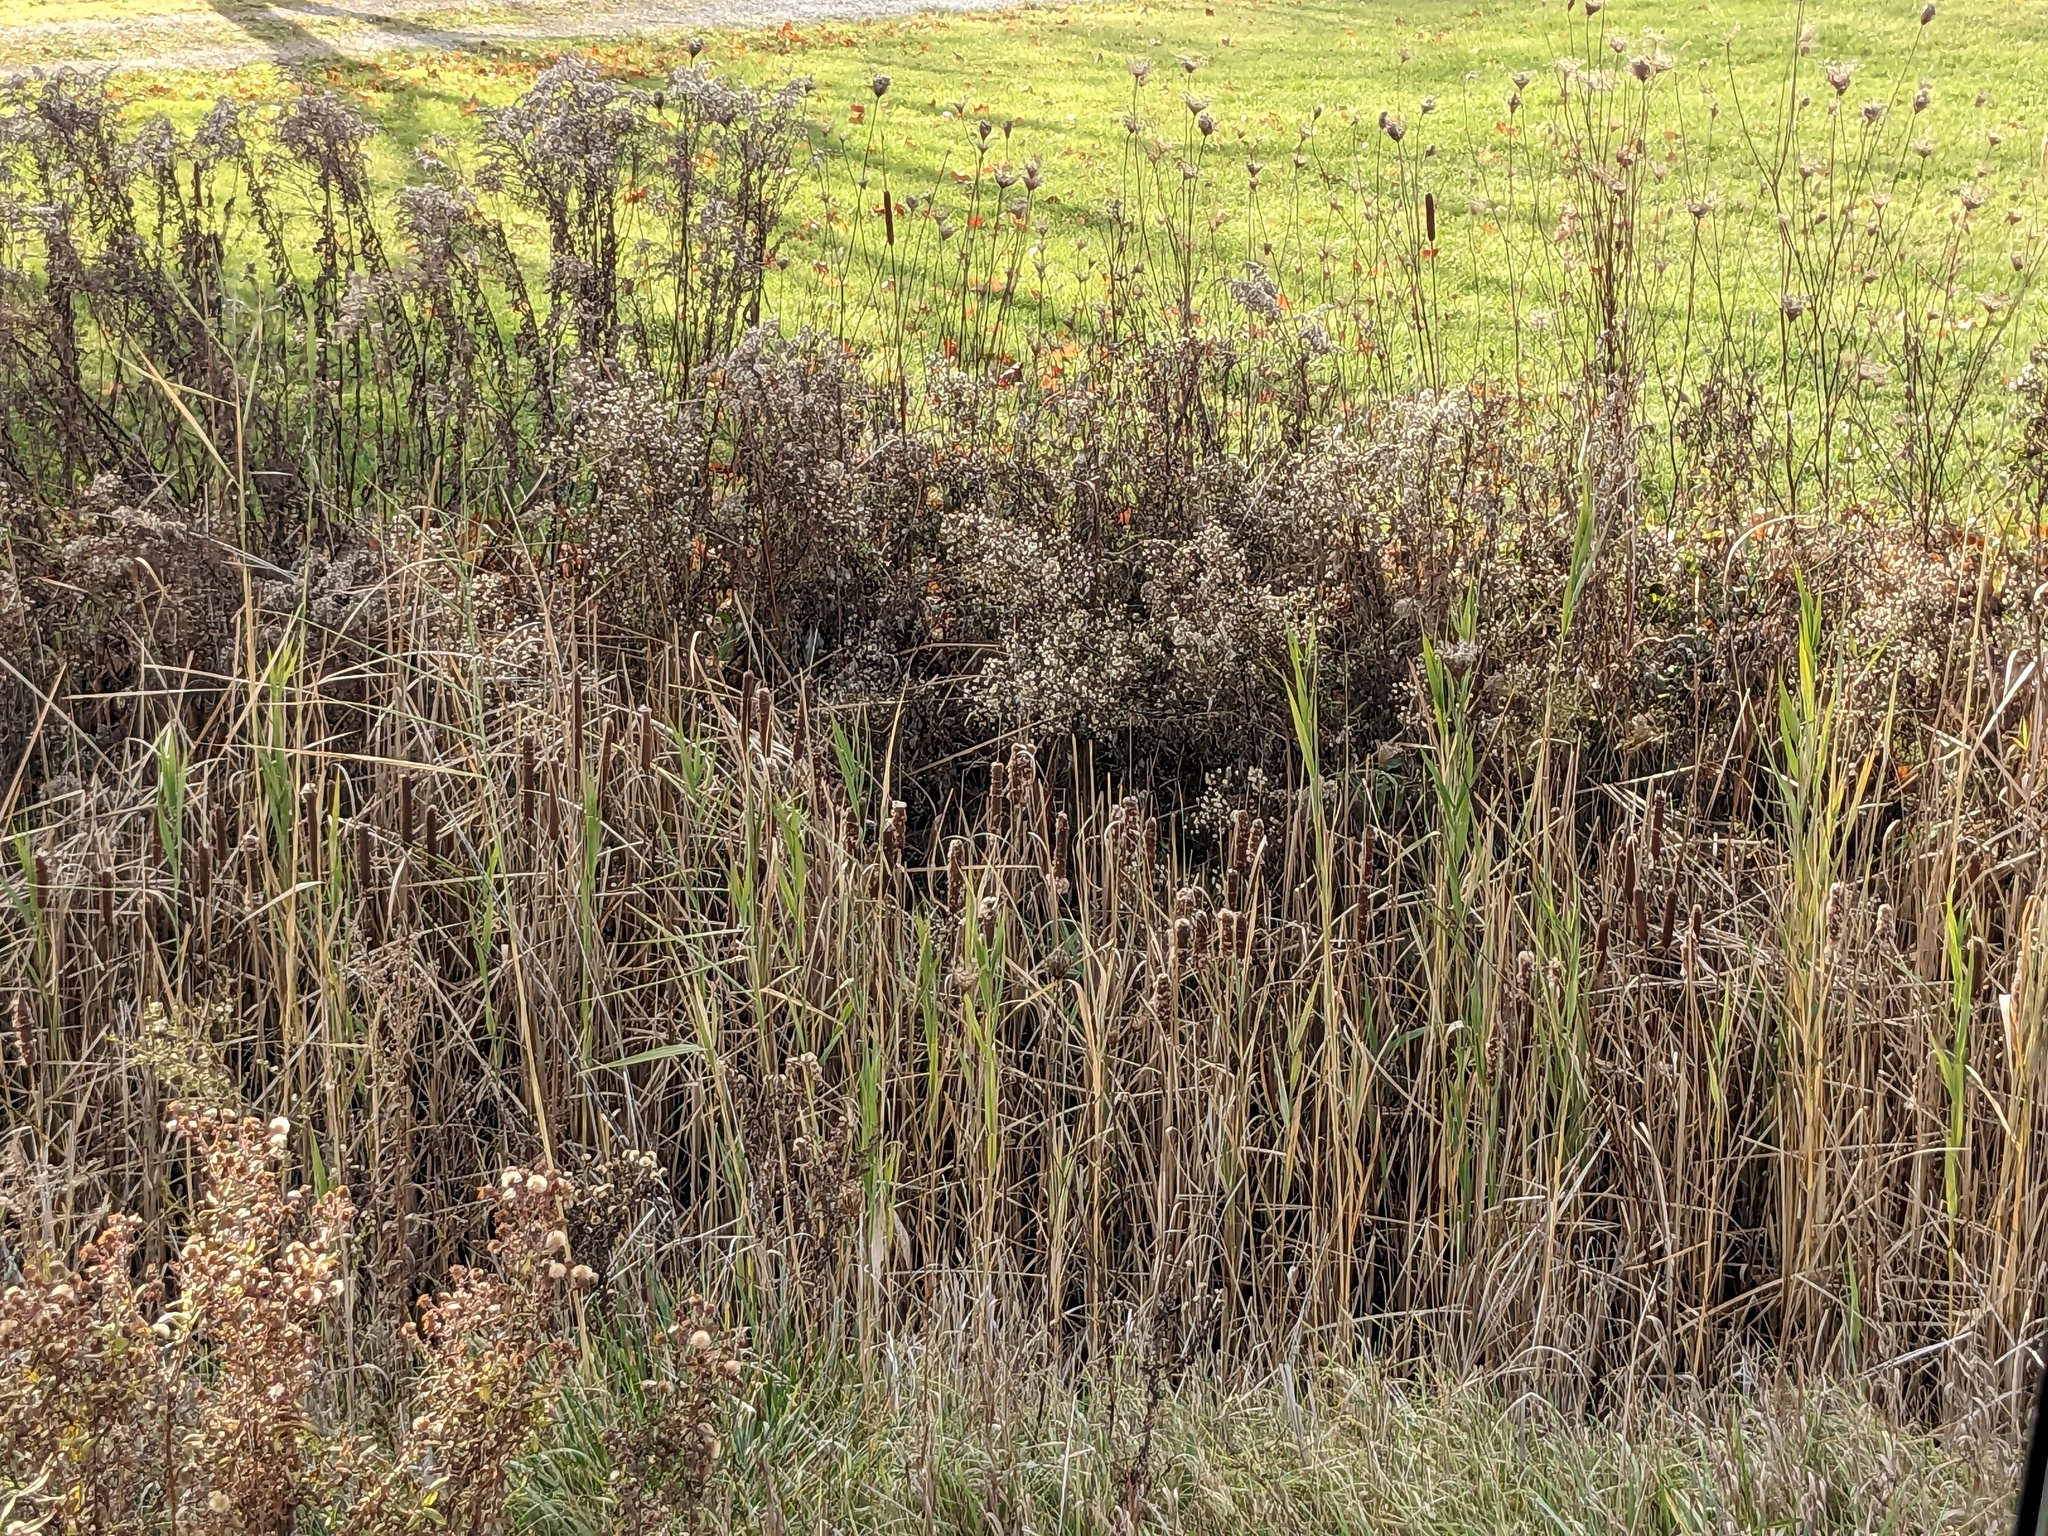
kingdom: Plantae
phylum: Tracheophyta
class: Liliopsida
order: Poales
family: Poaceae
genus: Phragmites
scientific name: Phragmites australis
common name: Common reed
